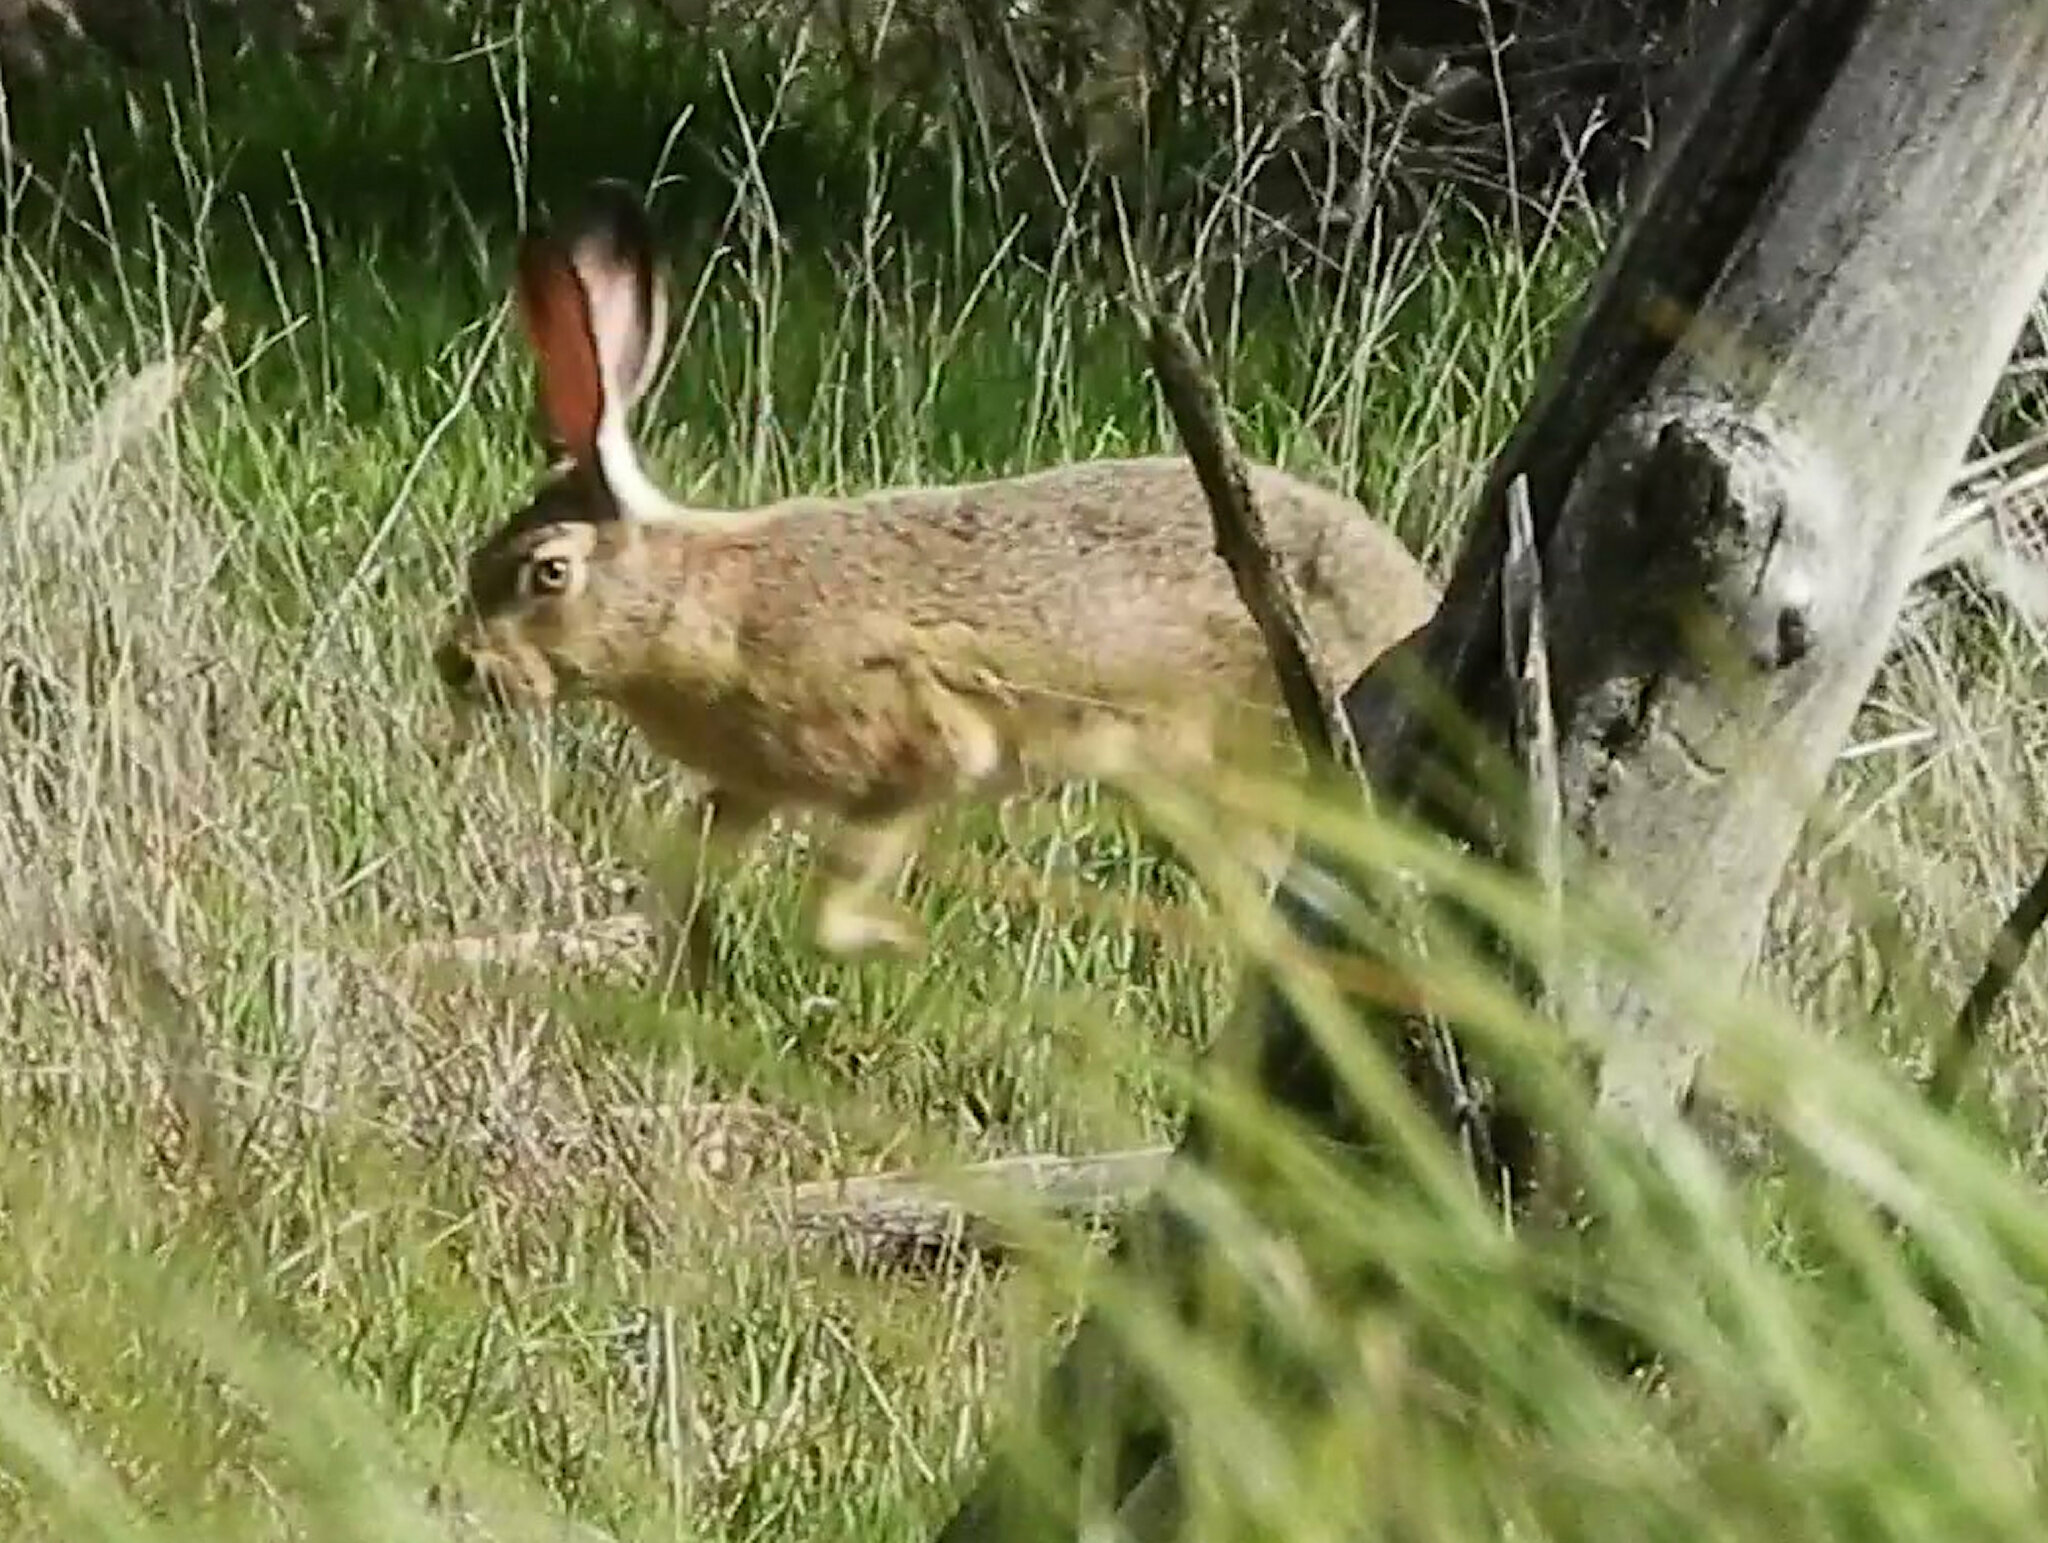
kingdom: Animalia
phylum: Chordata
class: Mammalia
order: Lagomorpha
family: Leporidae
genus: Lepus
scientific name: Lepus californicus
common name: Black-tailed jackrabbit
